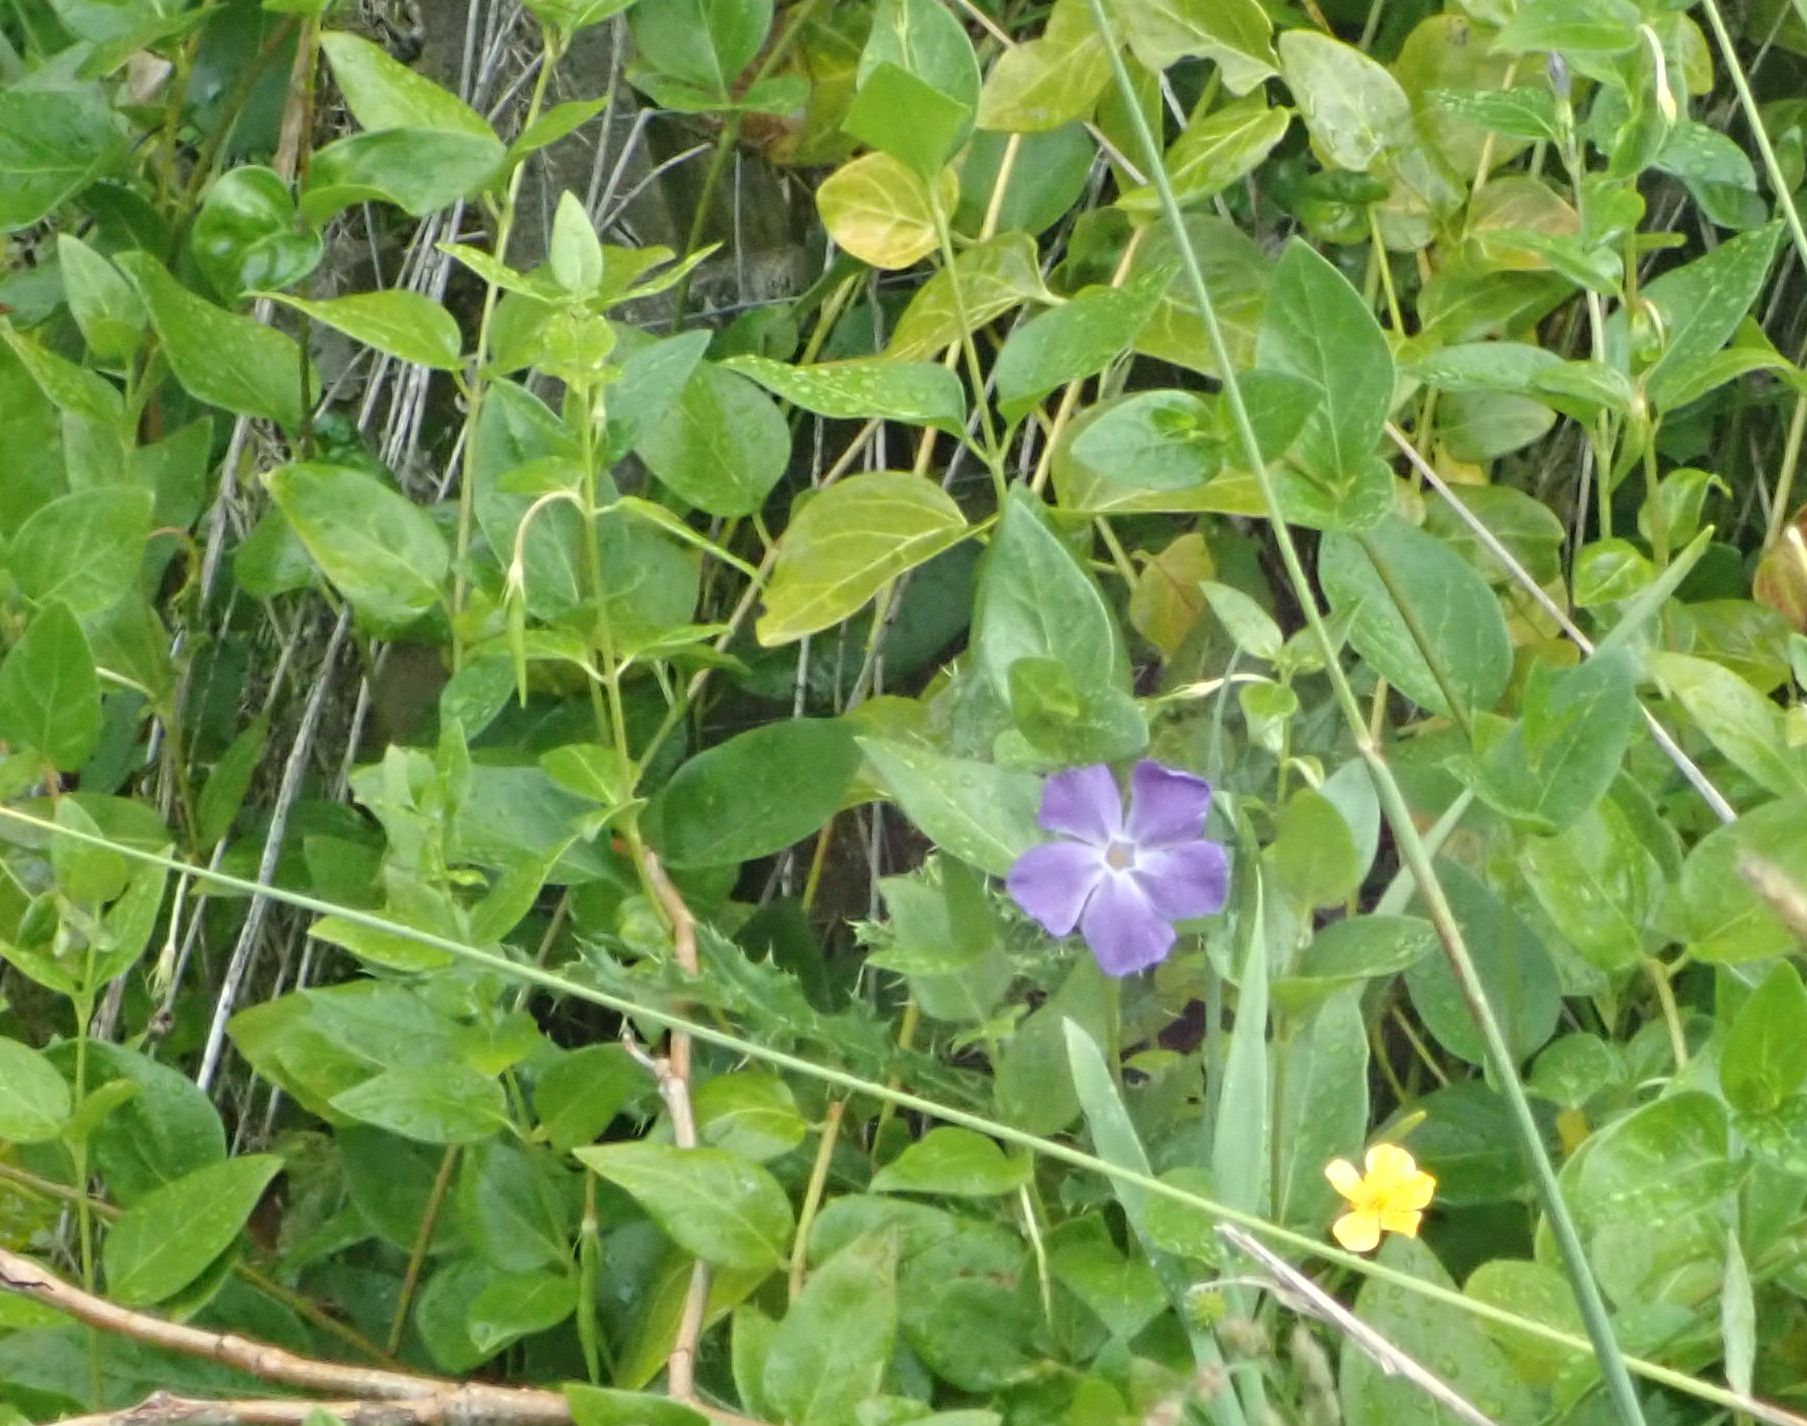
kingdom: Plantae
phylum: Tracheophyta
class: Magnoliopsida
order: Gentianales
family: Apocynaceae
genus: Vinca
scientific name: Vinca major
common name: Greater periwinkle
